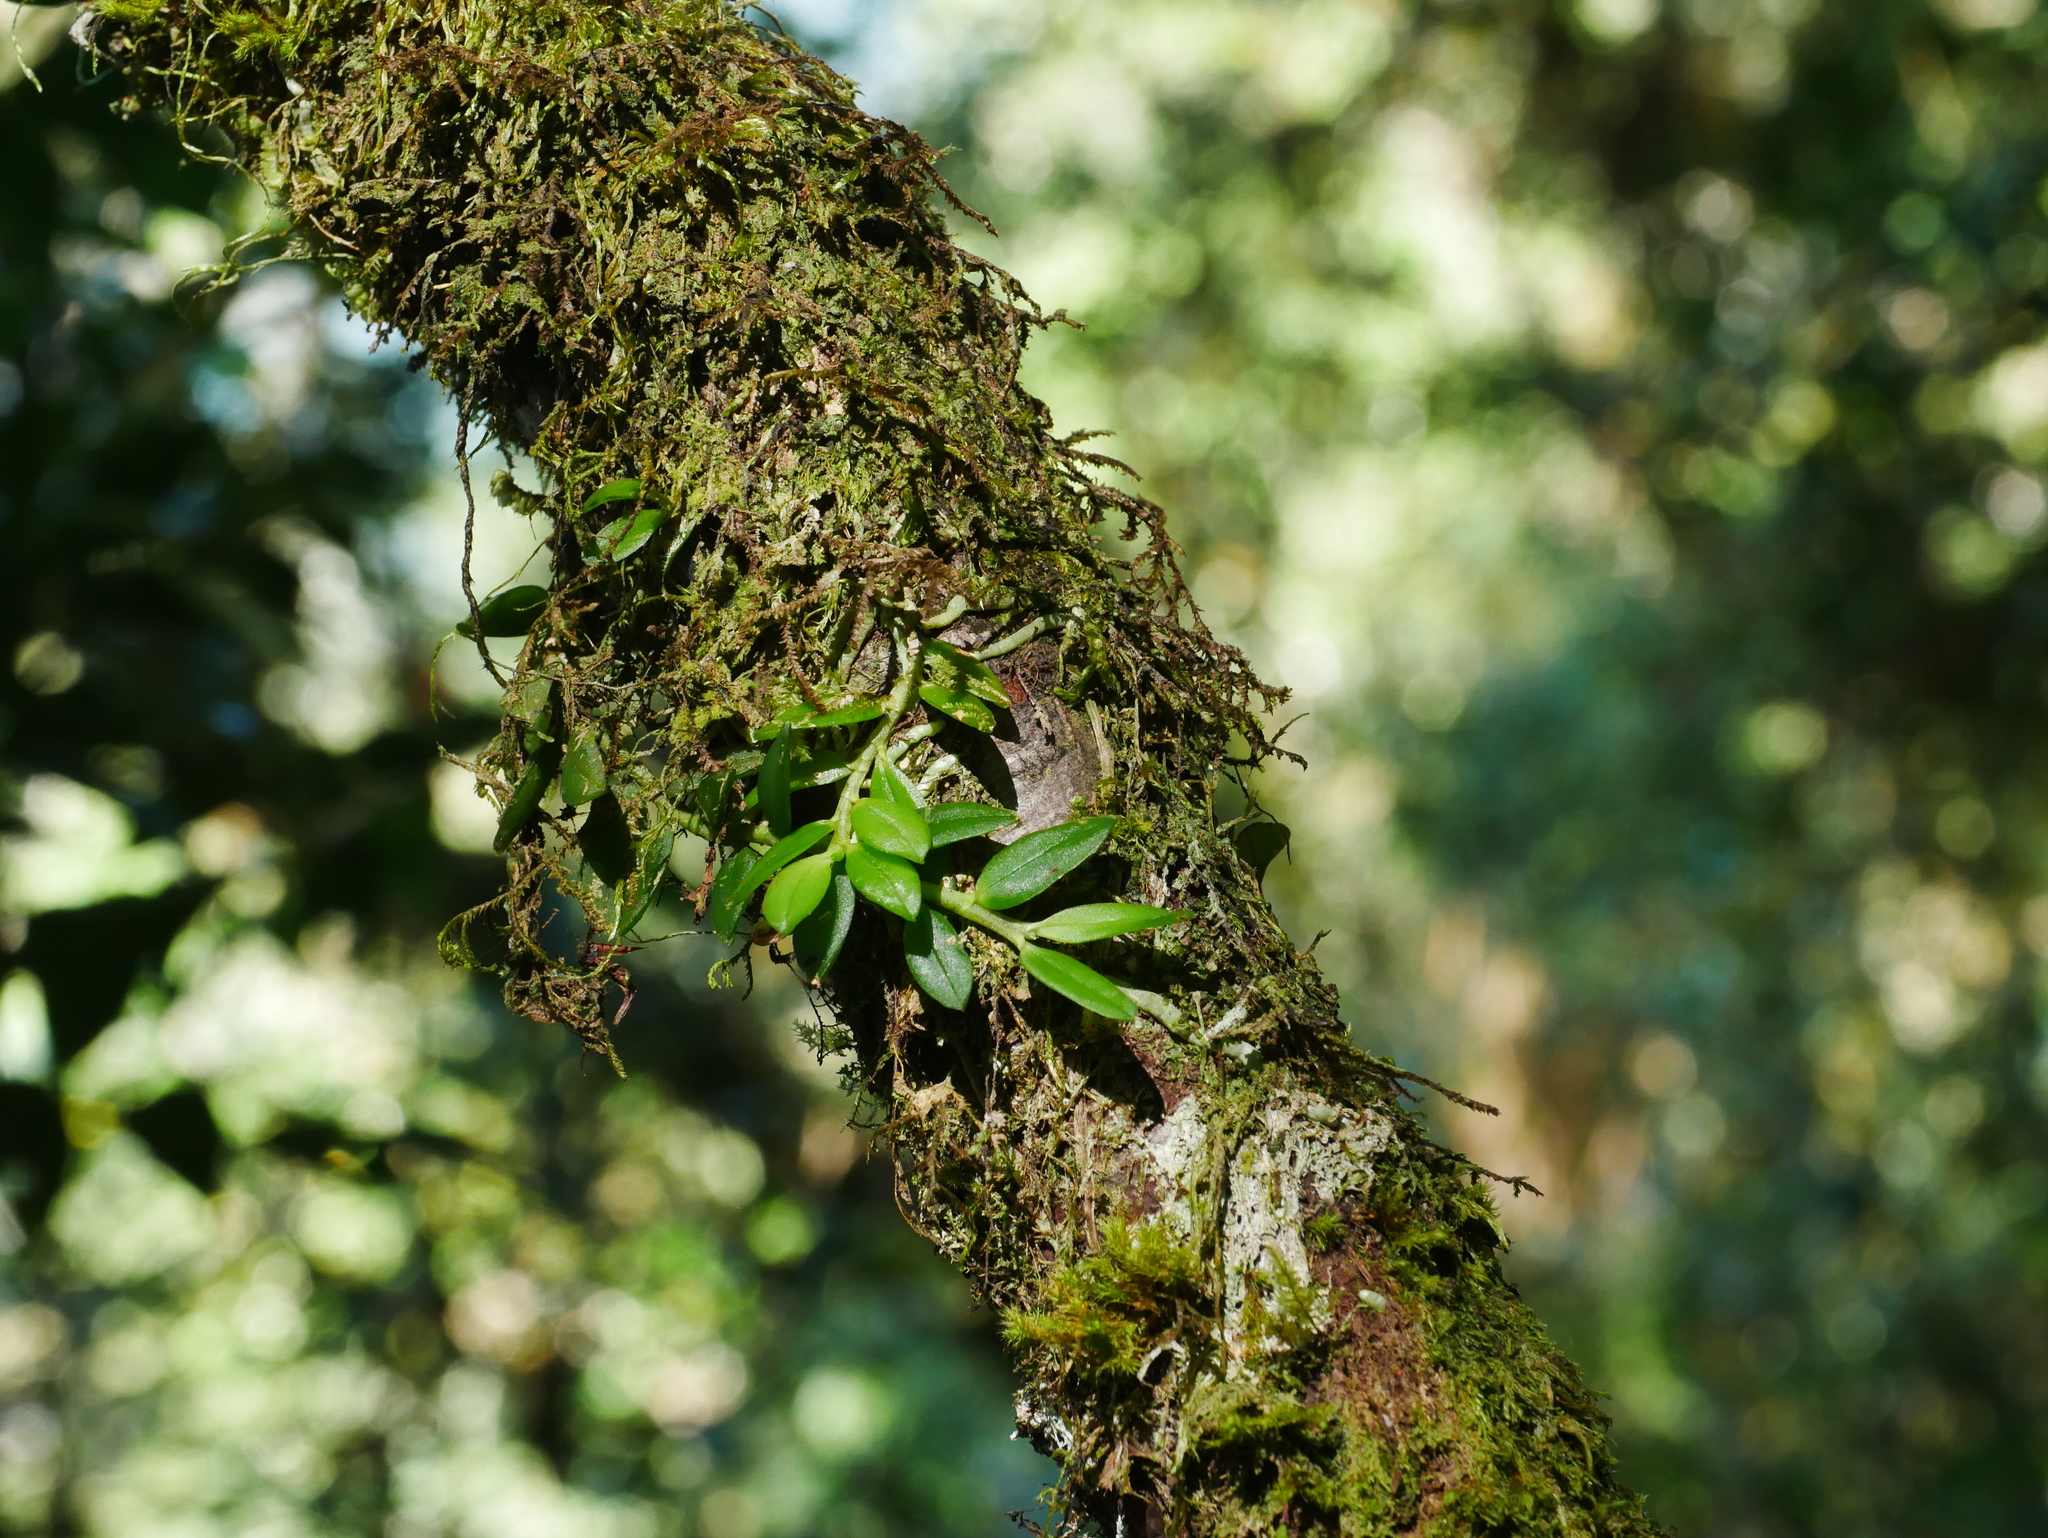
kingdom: Plantae
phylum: Tracheophyta
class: Liliopsida
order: Asparagales
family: Orchidaceae
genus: Gastrochilus
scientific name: Gastrochilus formosanus
